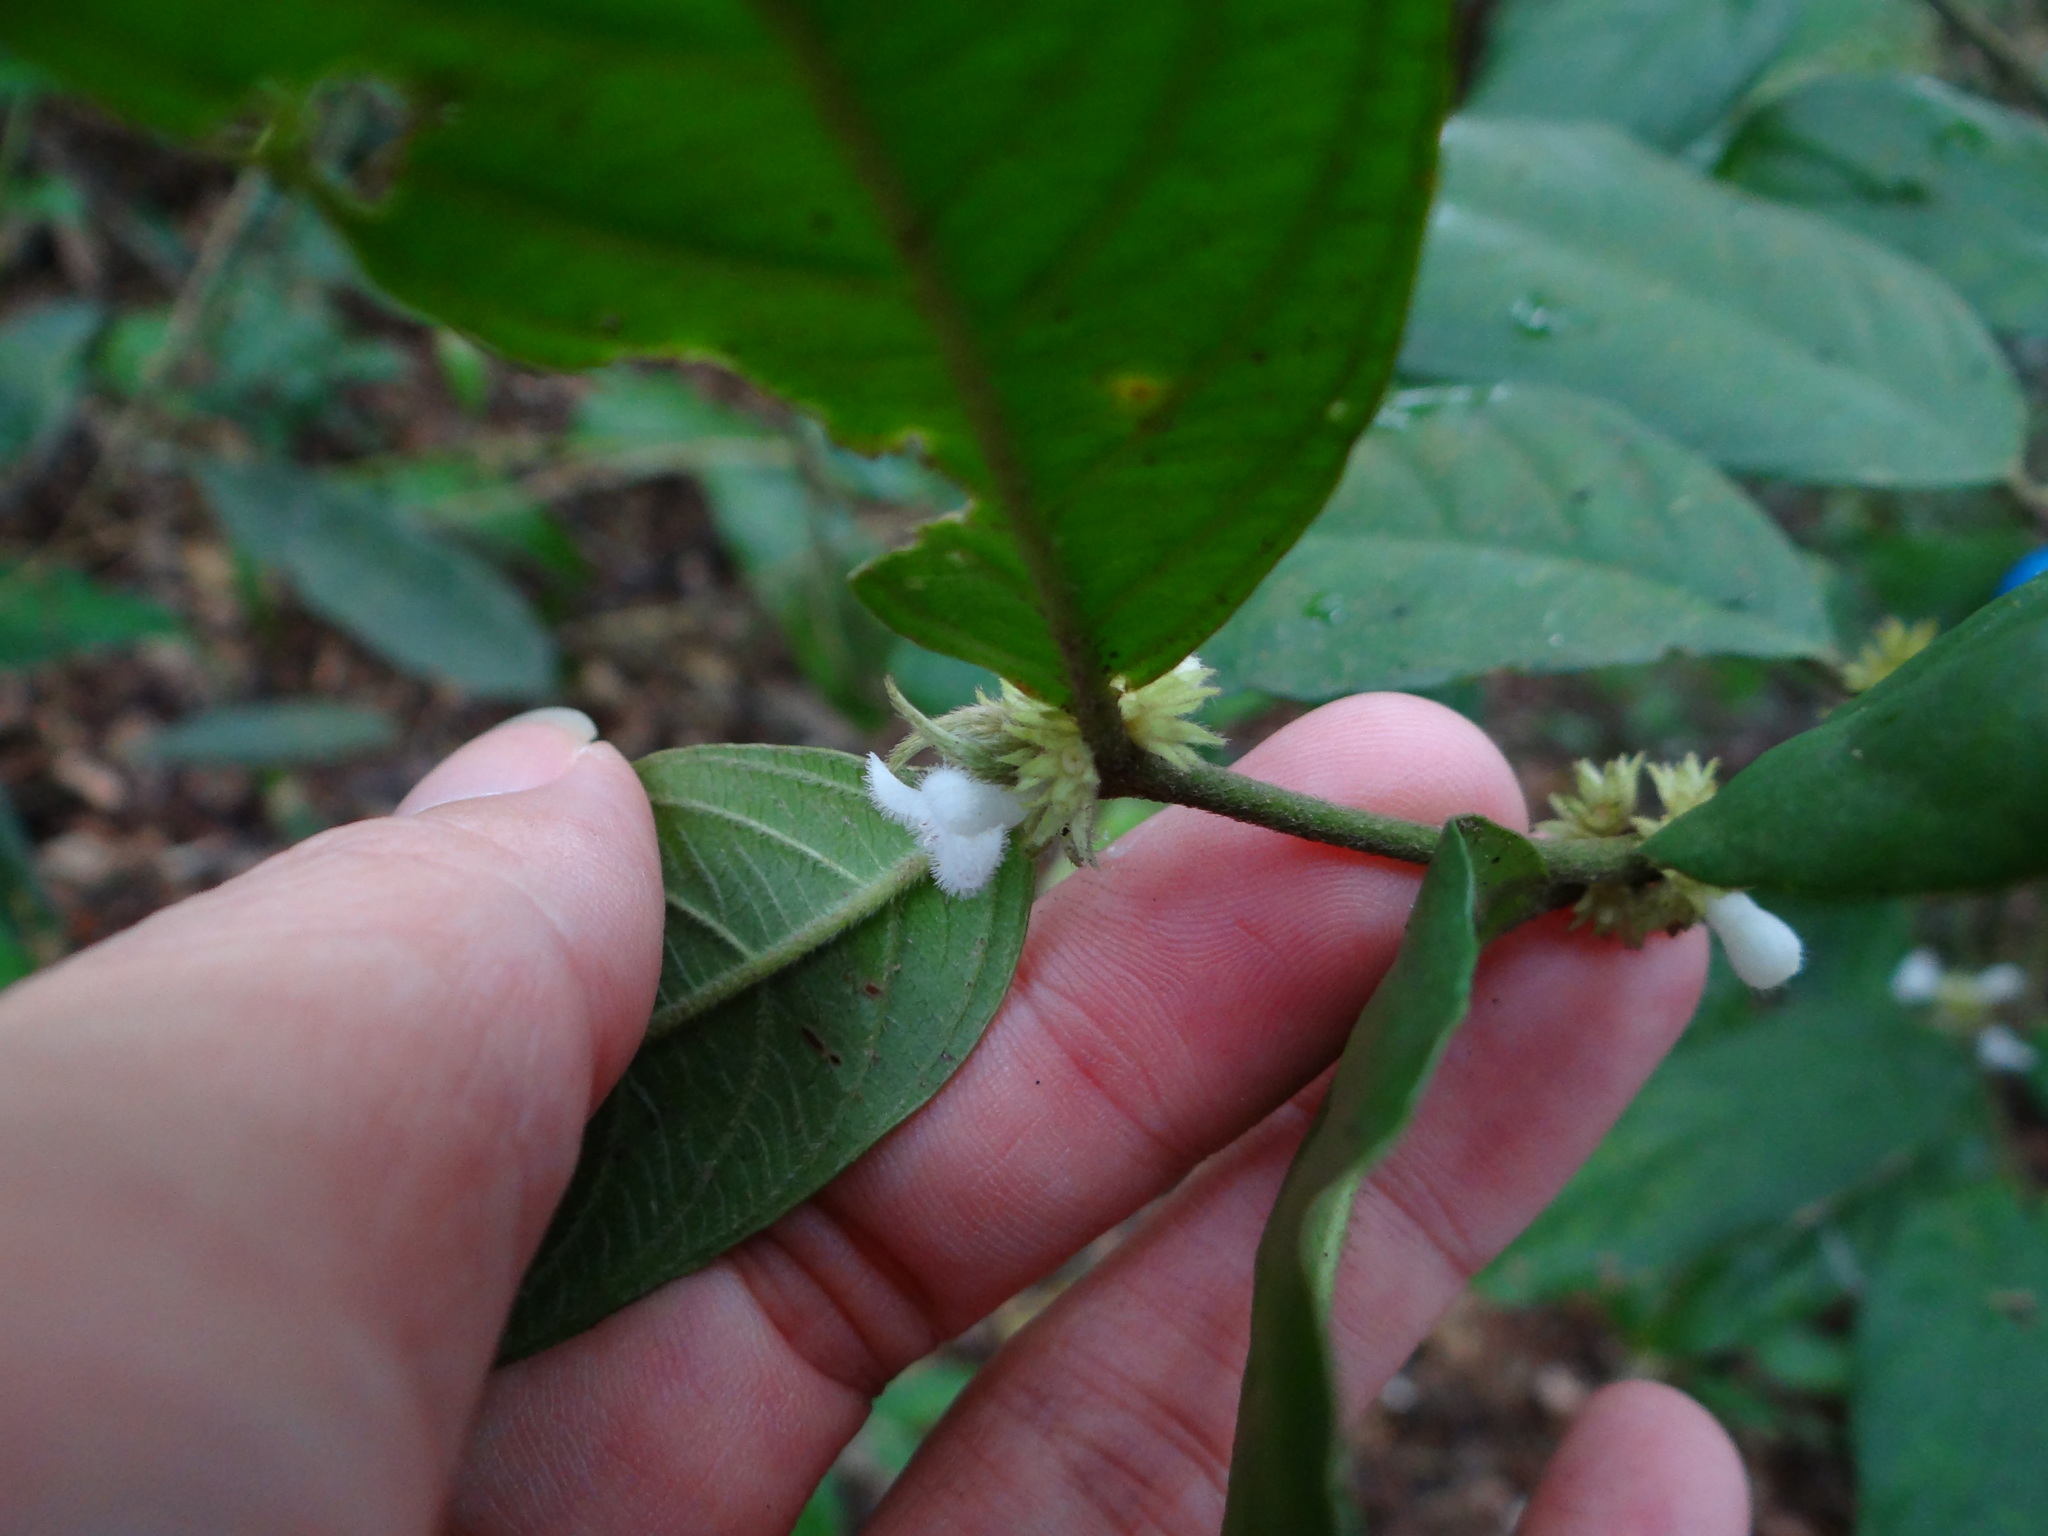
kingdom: Plantae
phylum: Tracheophyta
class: Magnoliopsida
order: Gentianales
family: Rubiaceae
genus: Lasianthus
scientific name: Lasianthus formosensis
